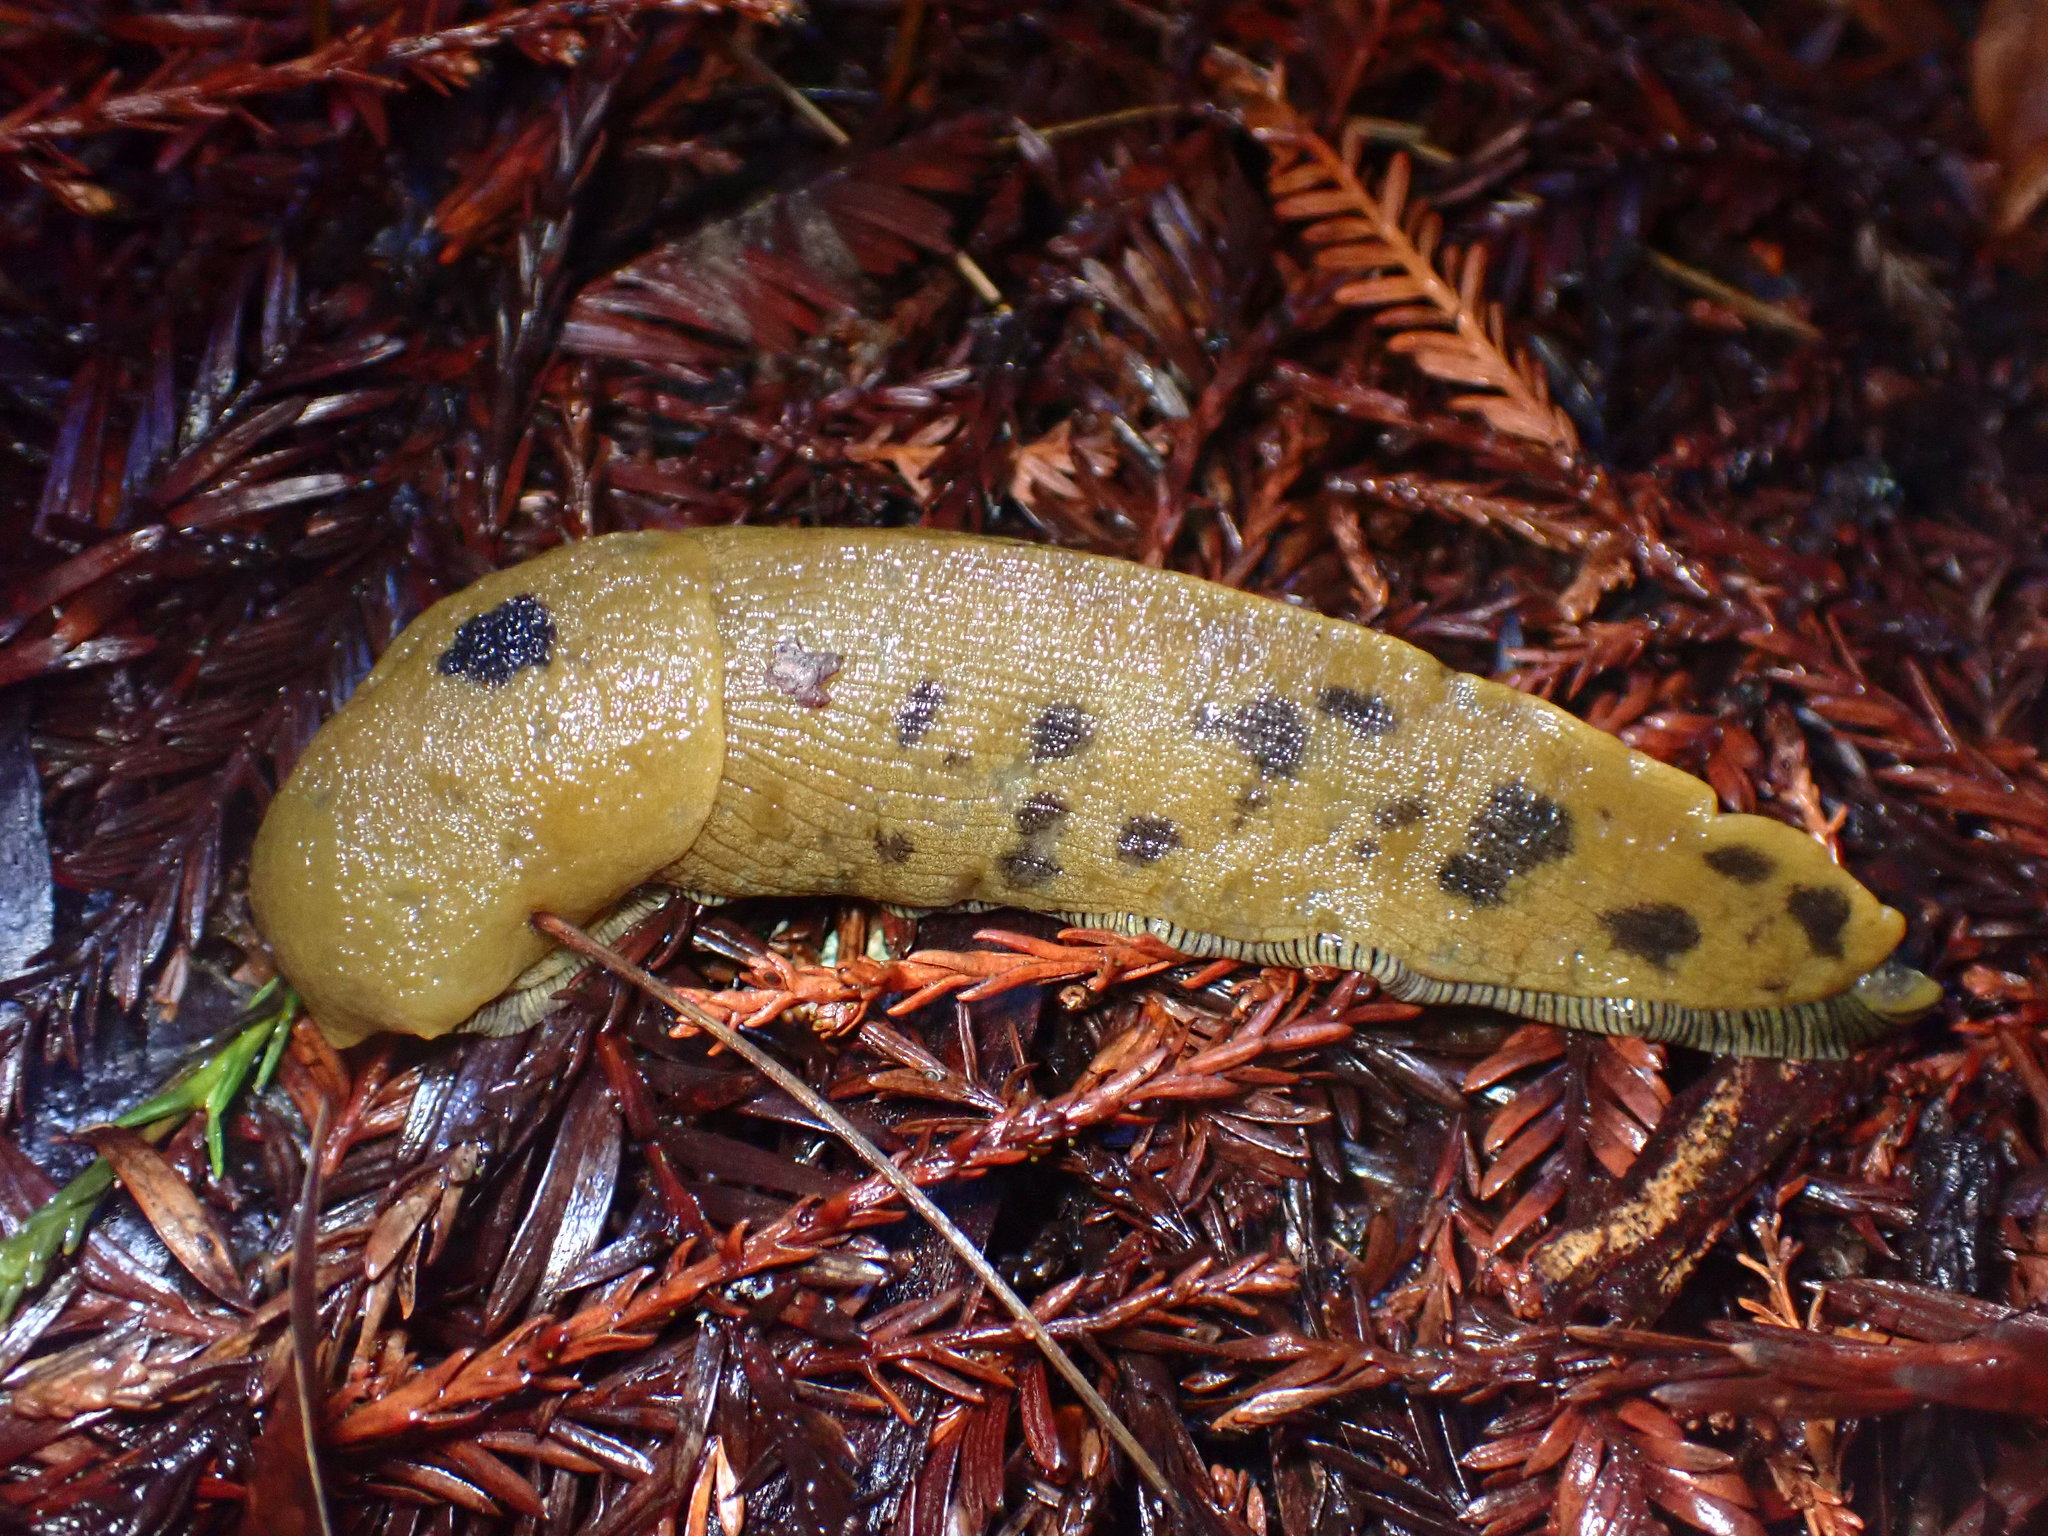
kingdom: Animalia
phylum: Mollusca
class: Gastropoda
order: Stylommatophora
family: Ariolimacidae
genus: Ariolimax
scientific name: Ariolimax buttoni
